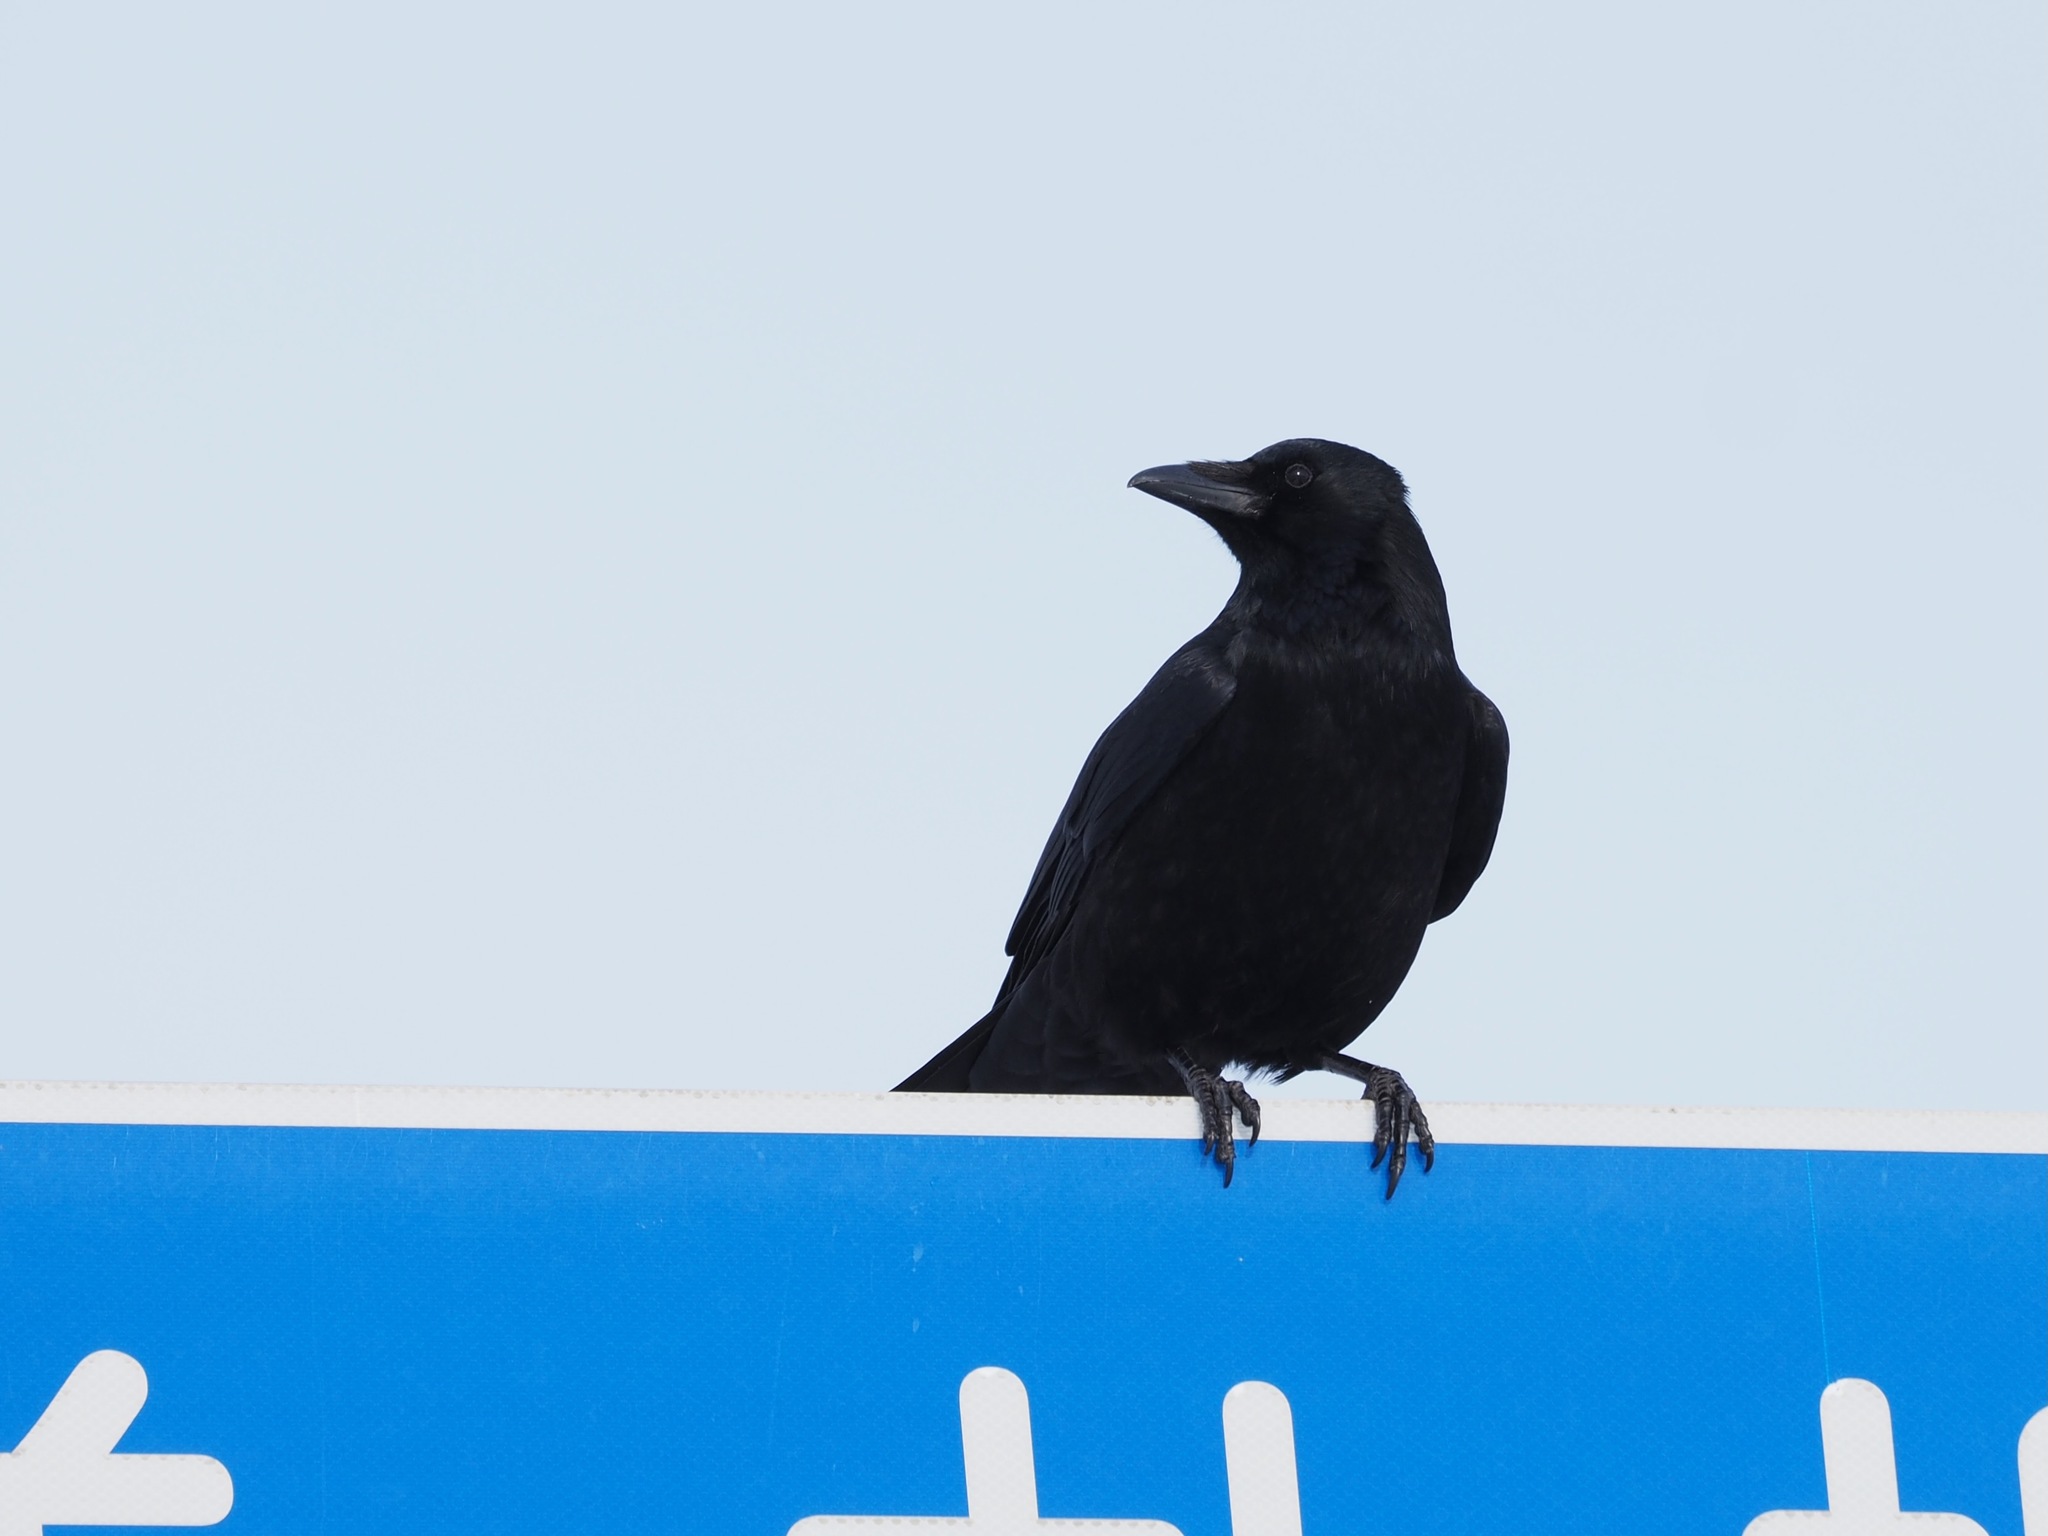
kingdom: Animalia
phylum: Chordata
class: Aves
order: Passeriformes
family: Corvidae
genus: Corvus
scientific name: Corvus corone
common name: Carrion crow
